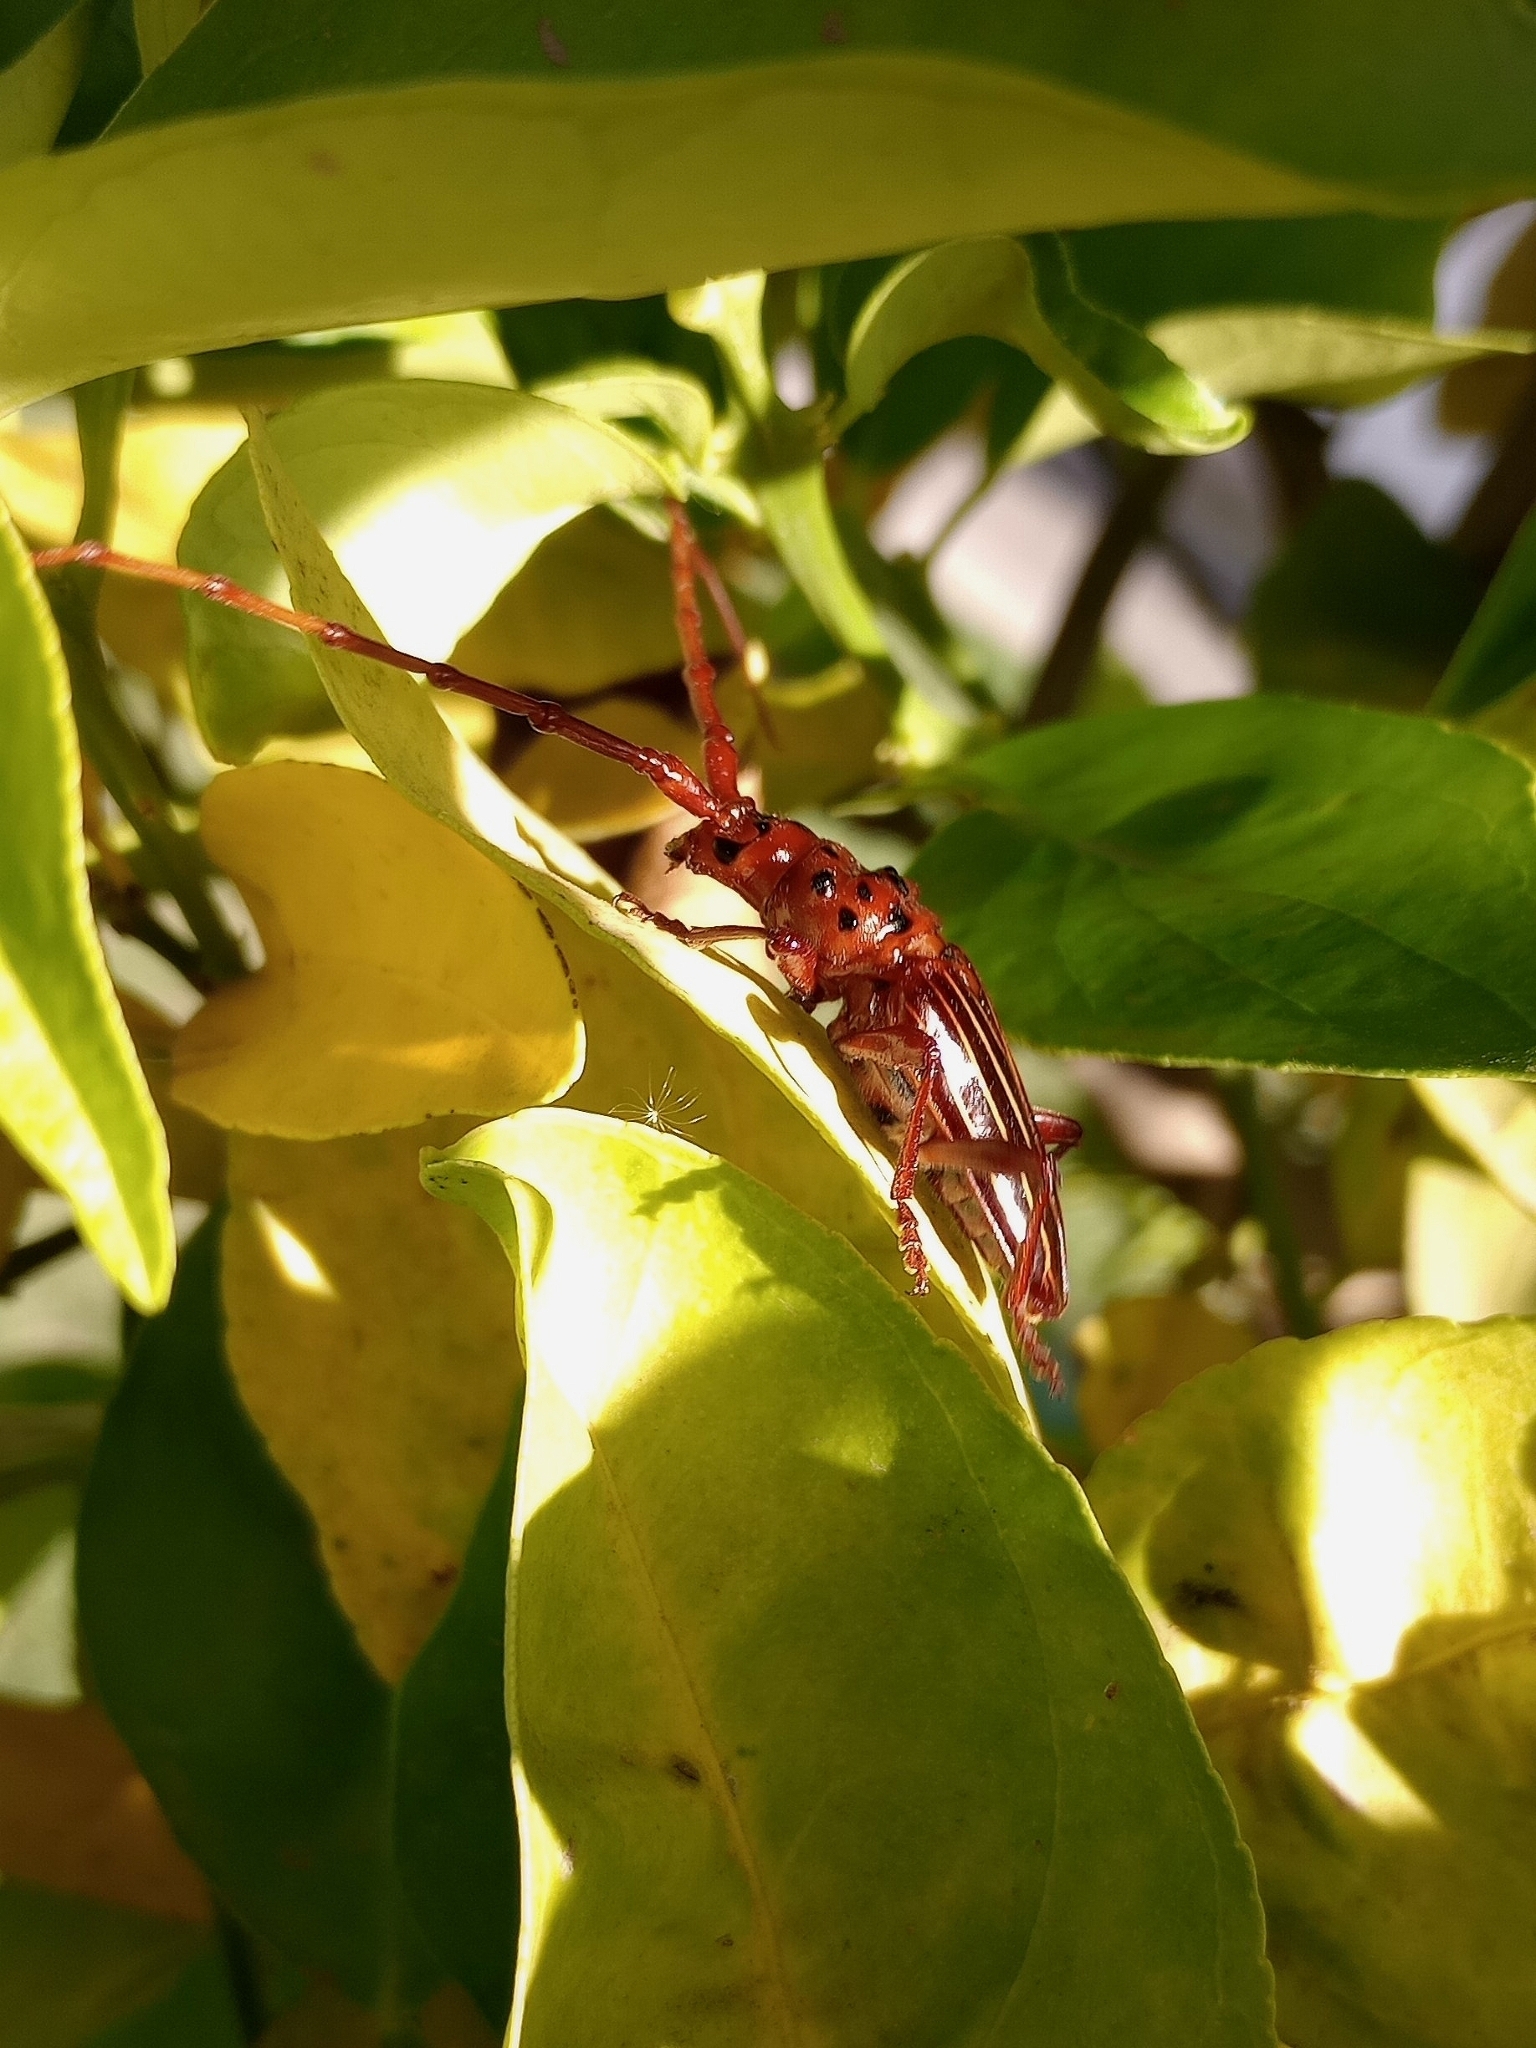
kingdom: Animalia
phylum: Arthropoda
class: Insecta
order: Coleoptera
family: Cerambycidae
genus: Chydarteres
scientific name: Chydarteres striatus
